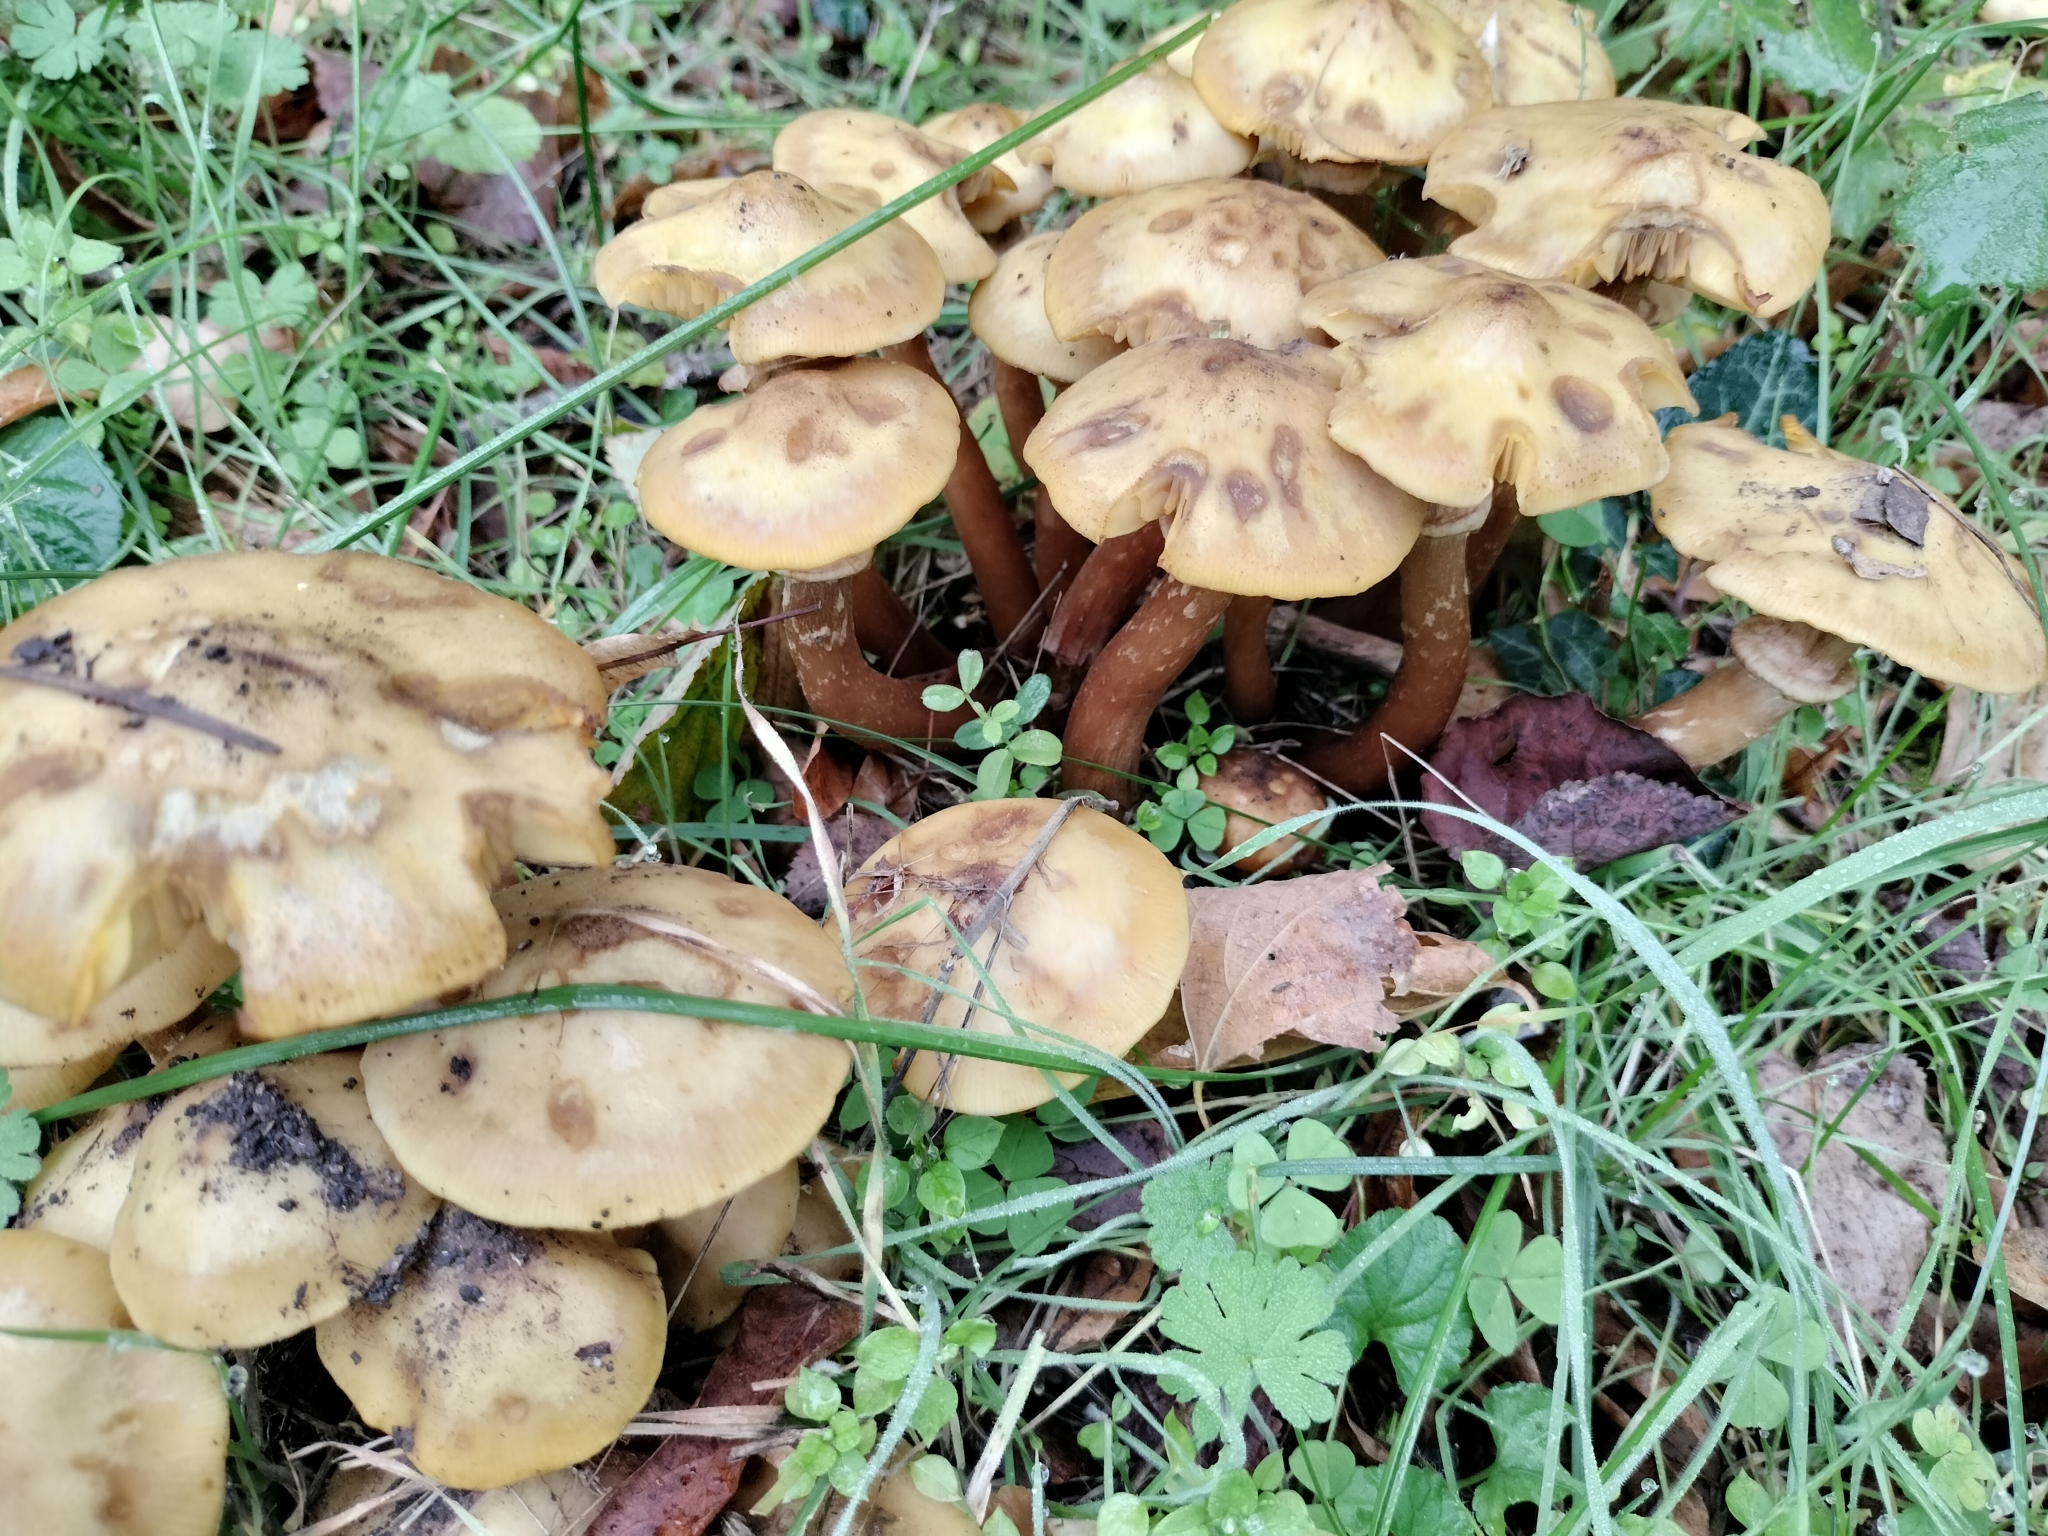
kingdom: Fungi
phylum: Basidiomycota
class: Agaricomycetes
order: Agaricales
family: Physalacriaceae
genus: Armillaria
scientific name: Armillaria mellea
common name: Honey fungus
